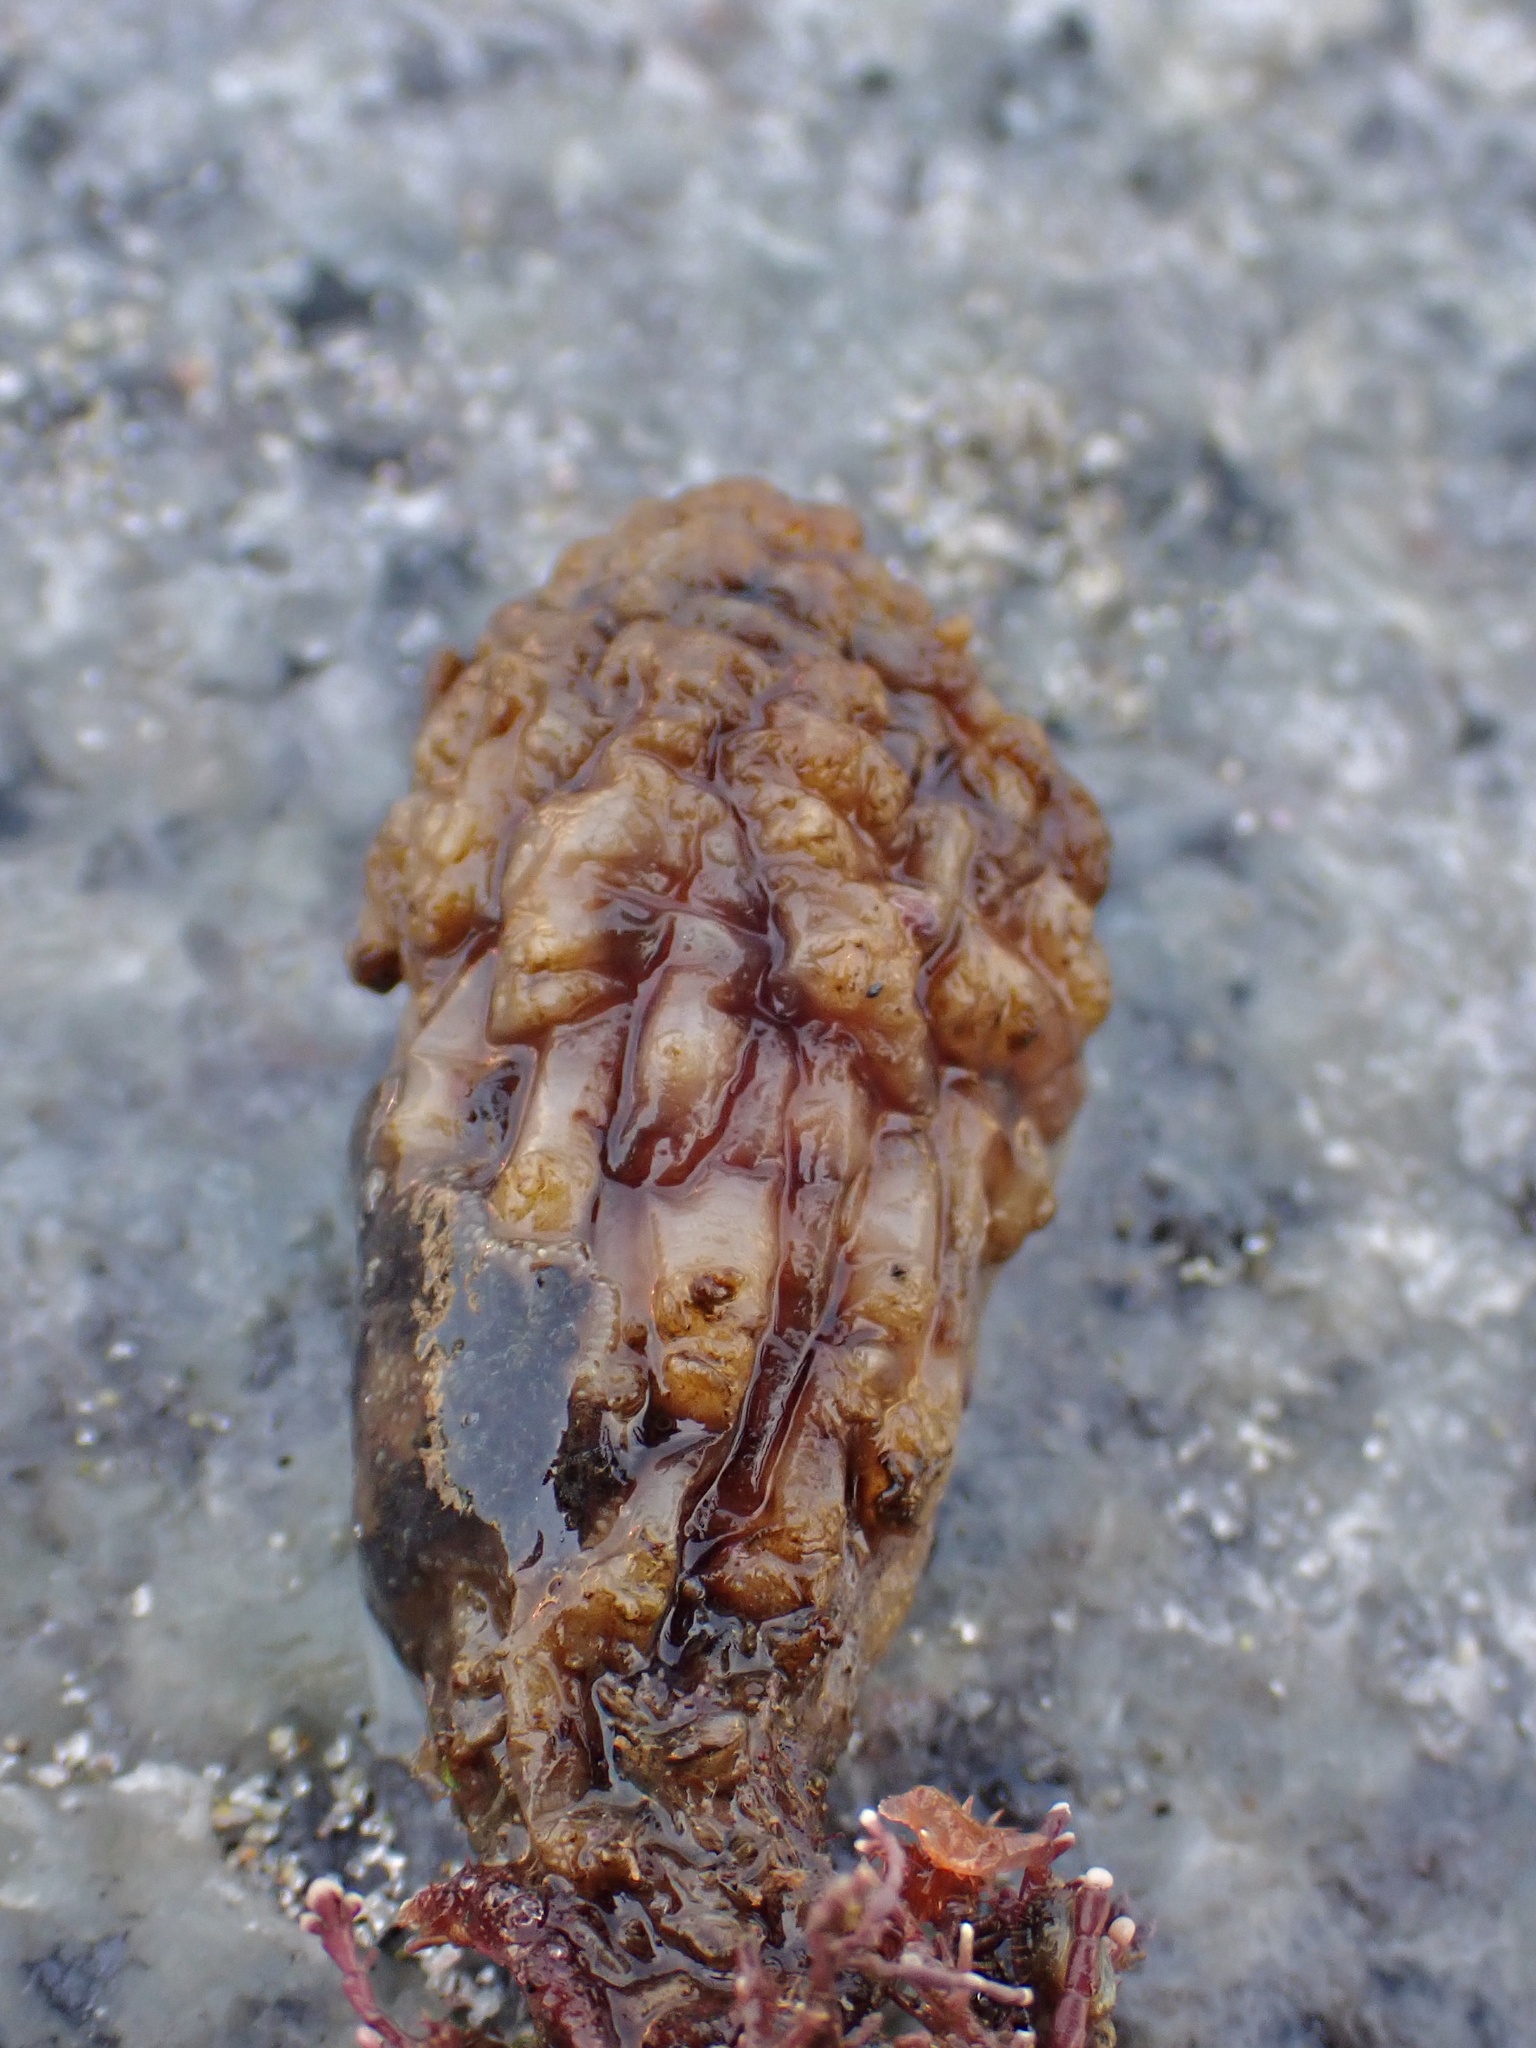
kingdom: Animalia
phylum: Chordata
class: Ascidiacea
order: Stolidobranchia
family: Styelidae
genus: Styela
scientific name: Styela clava
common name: Leathery sea squirt
